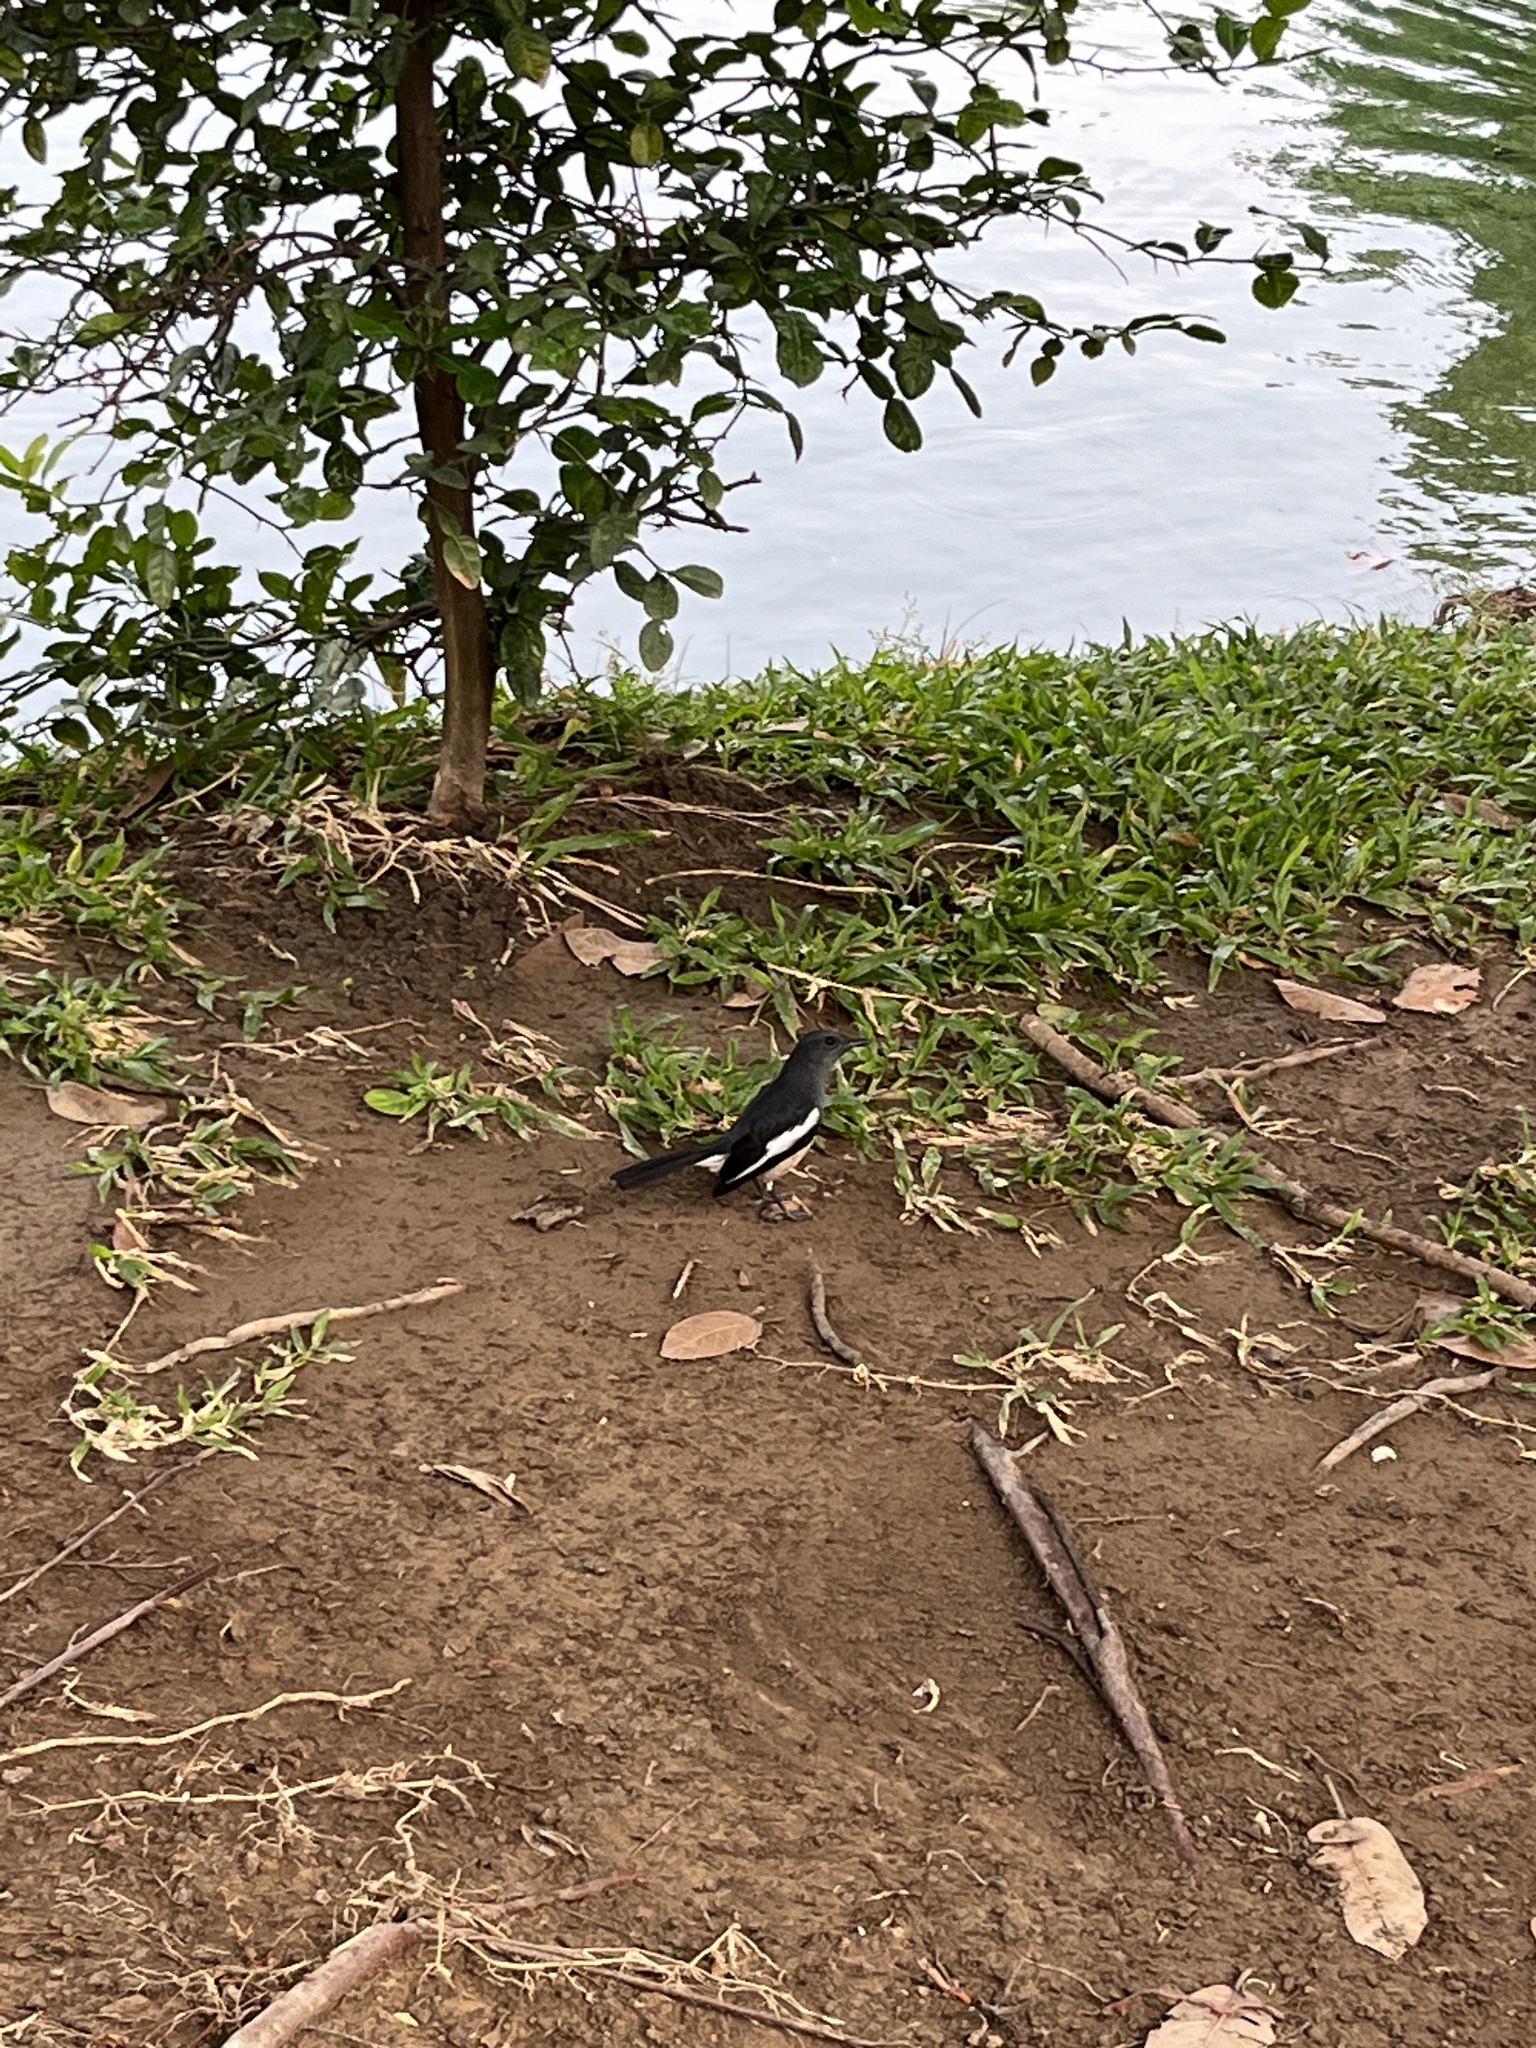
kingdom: Animalia
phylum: Chordata
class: Aves
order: Passeriformes
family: Muscicapidae
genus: Copsychus
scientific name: Copsychus saularis
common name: Oriental magpie-robin
